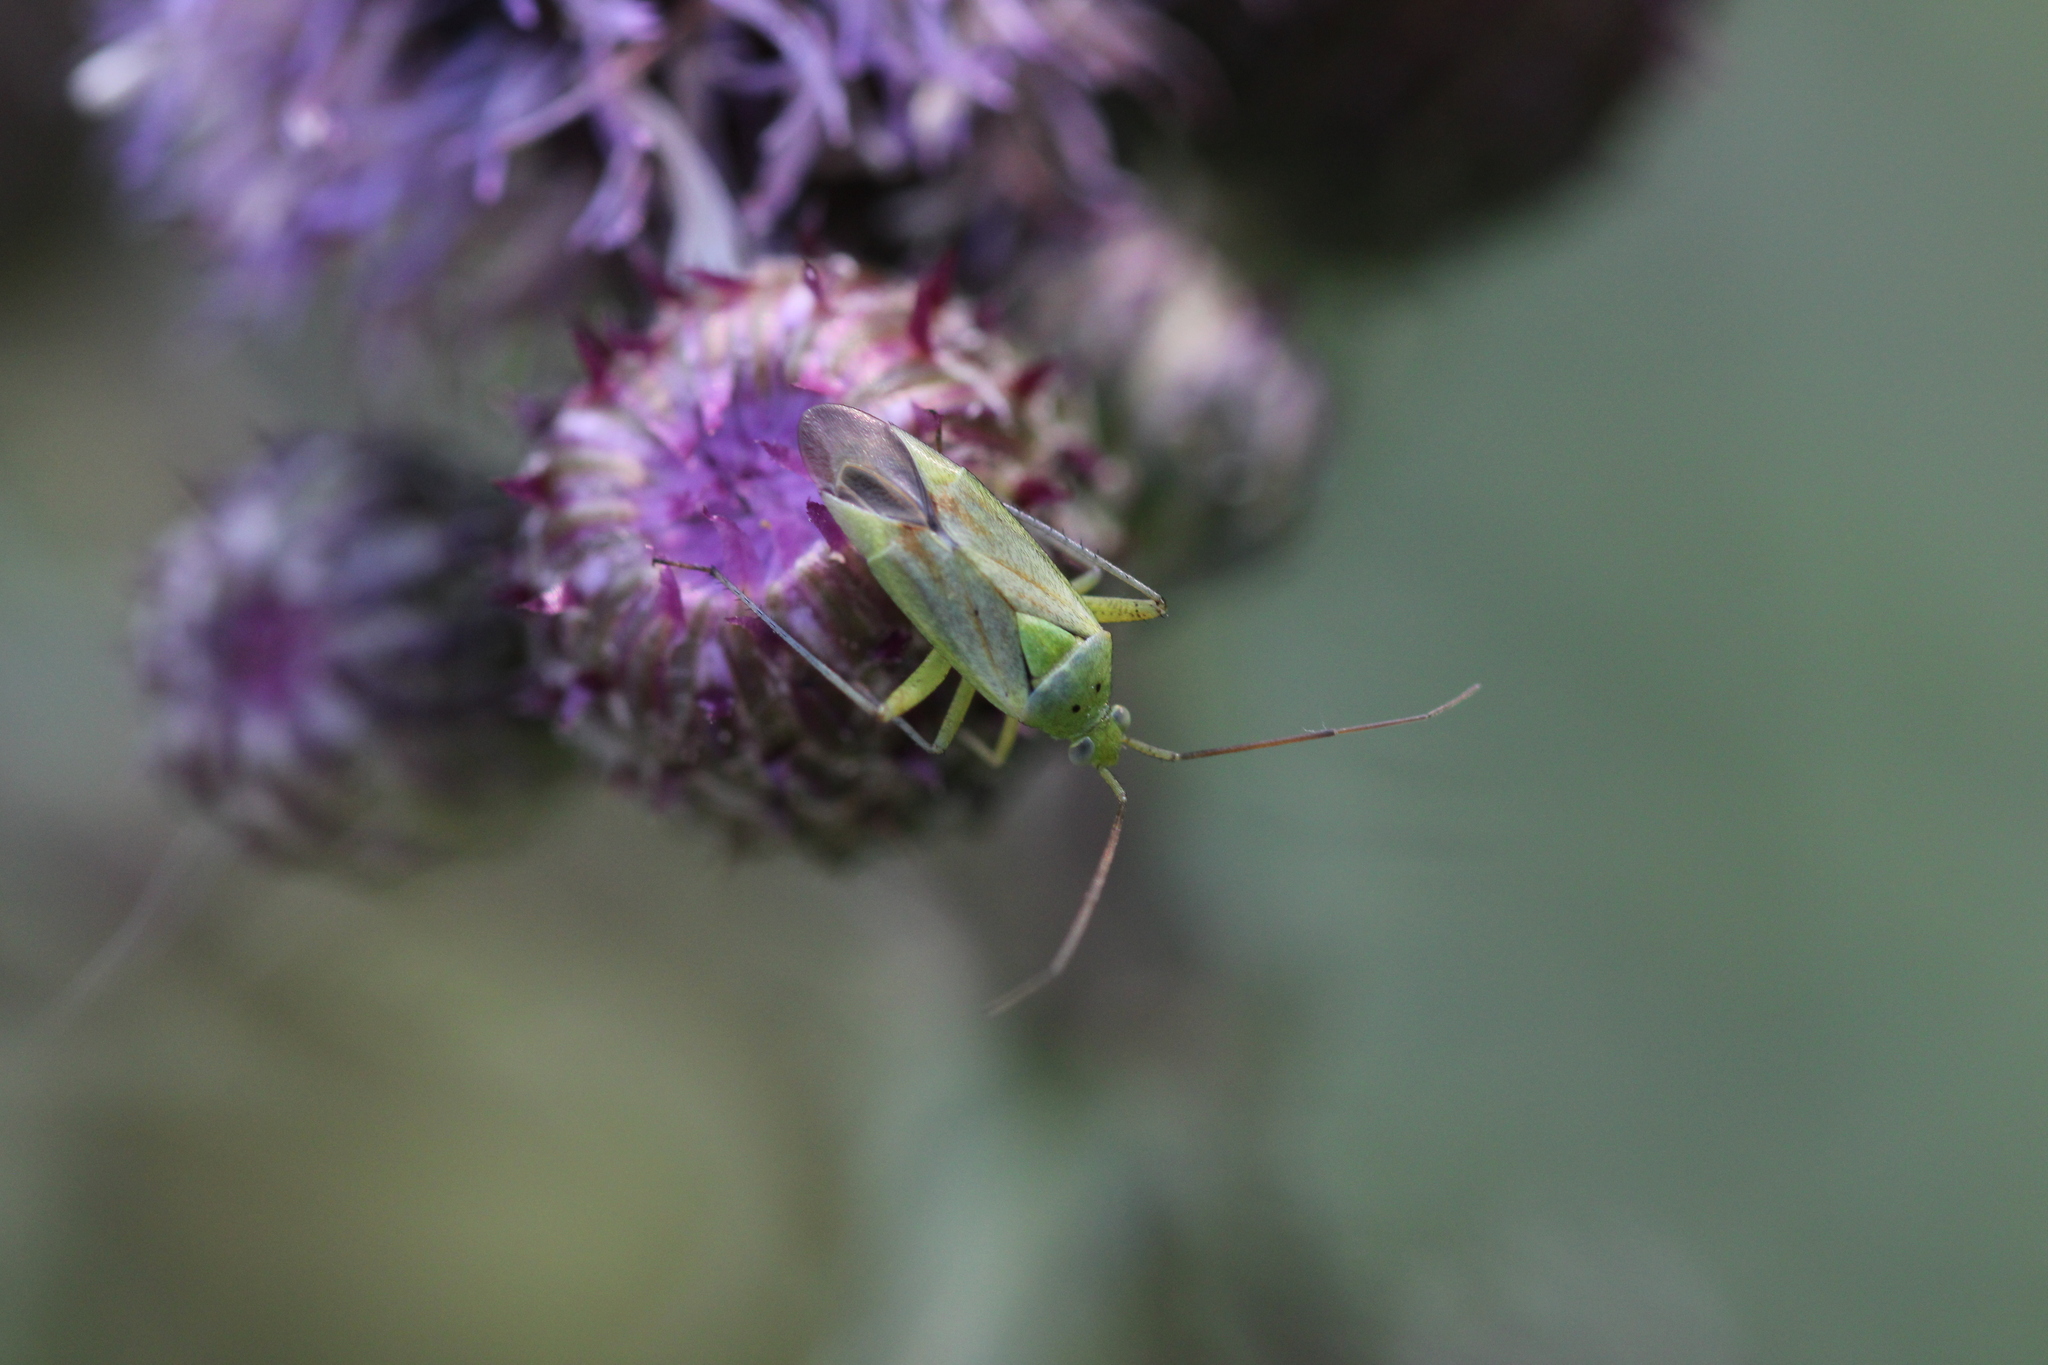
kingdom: Animalia
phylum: Arthropoda
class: Insecta
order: Hemiptera
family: Miridae
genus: Closterotomus
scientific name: Closterotomus norvegicus
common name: Plant bug
